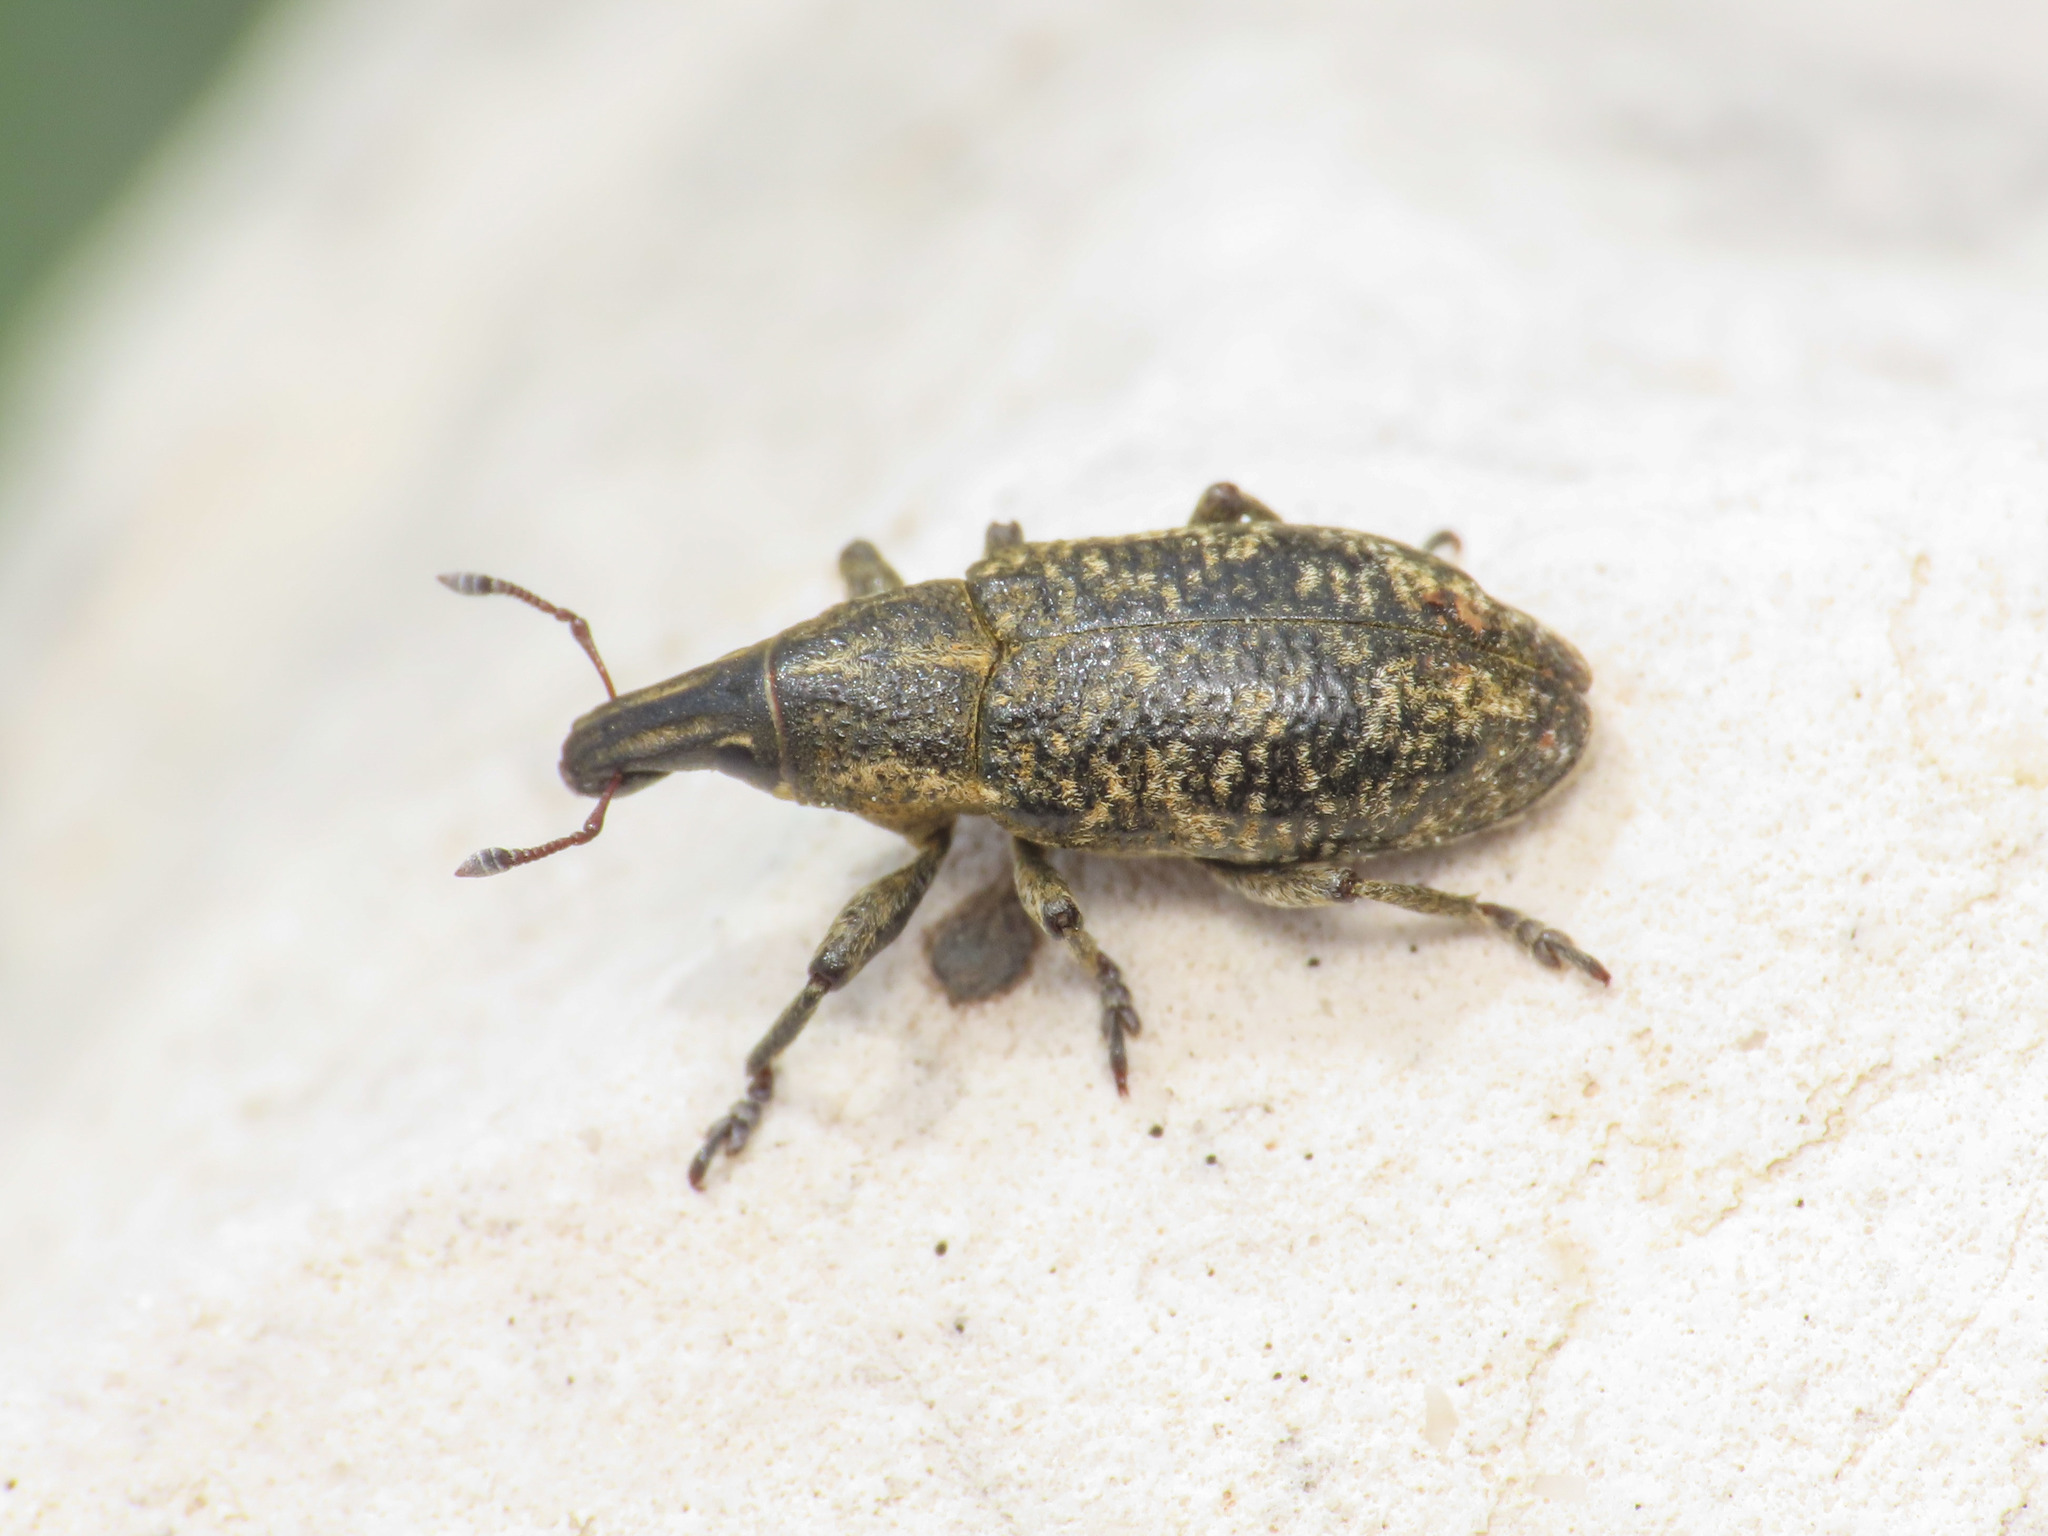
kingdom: Animalia
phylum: Arthropoda
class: Insecta
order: Coleoptera
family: Curculionidae
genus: Cleonis
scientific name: Cleonis pigra
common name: Large thistle weevil
